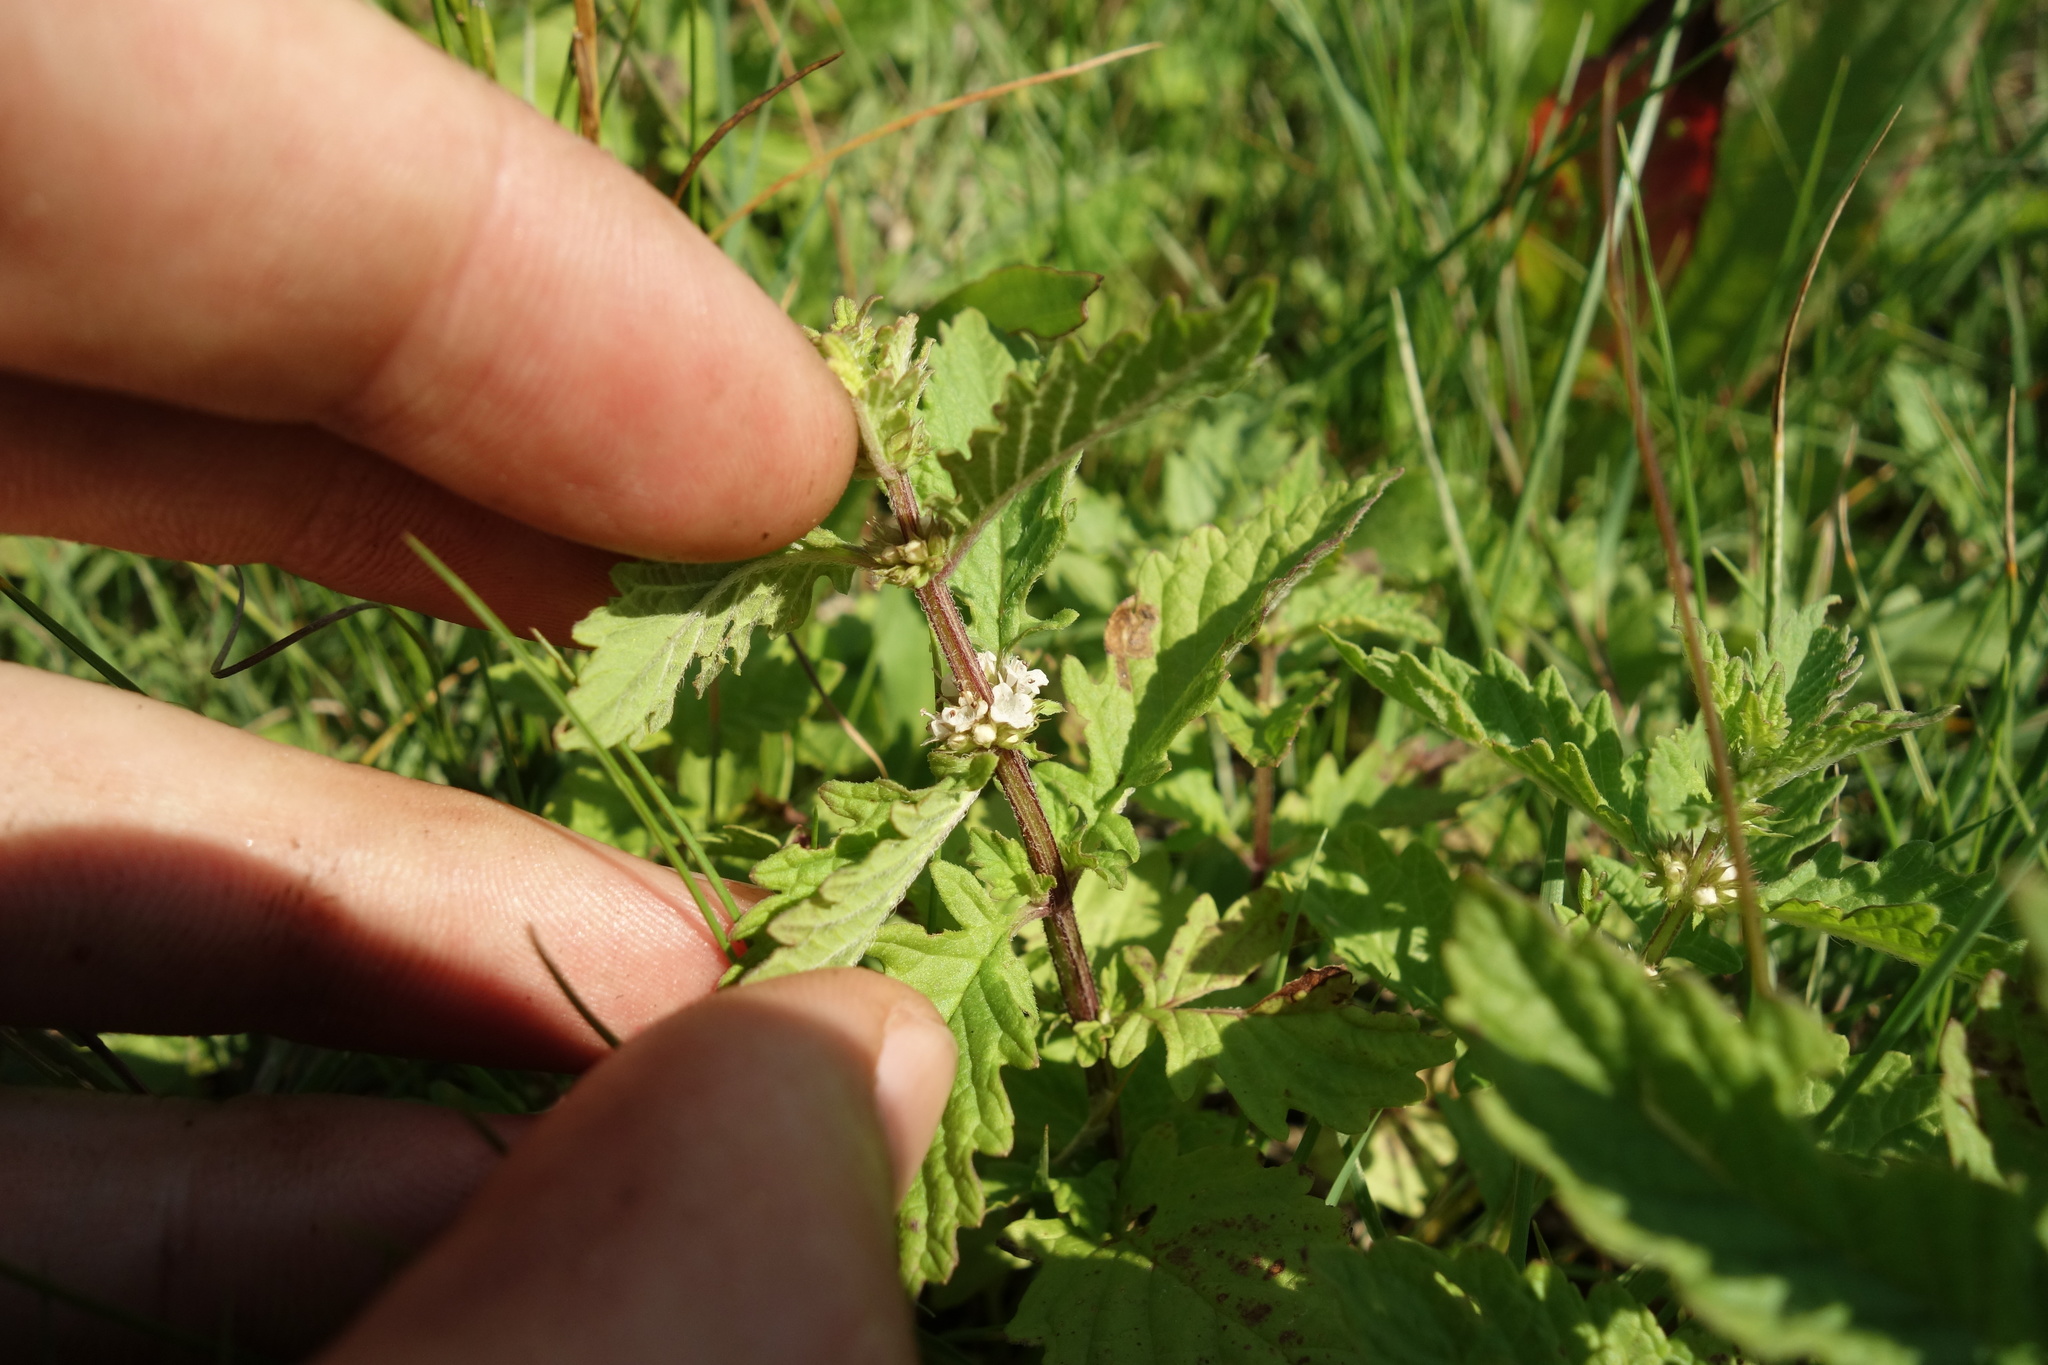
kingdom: Plantae
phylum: Tracheophyta
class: Magnoliopsida
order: Lamiales
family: Lamiaceae
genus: Lycopus
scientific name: Lycopus europaeus
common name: European bugleweed
